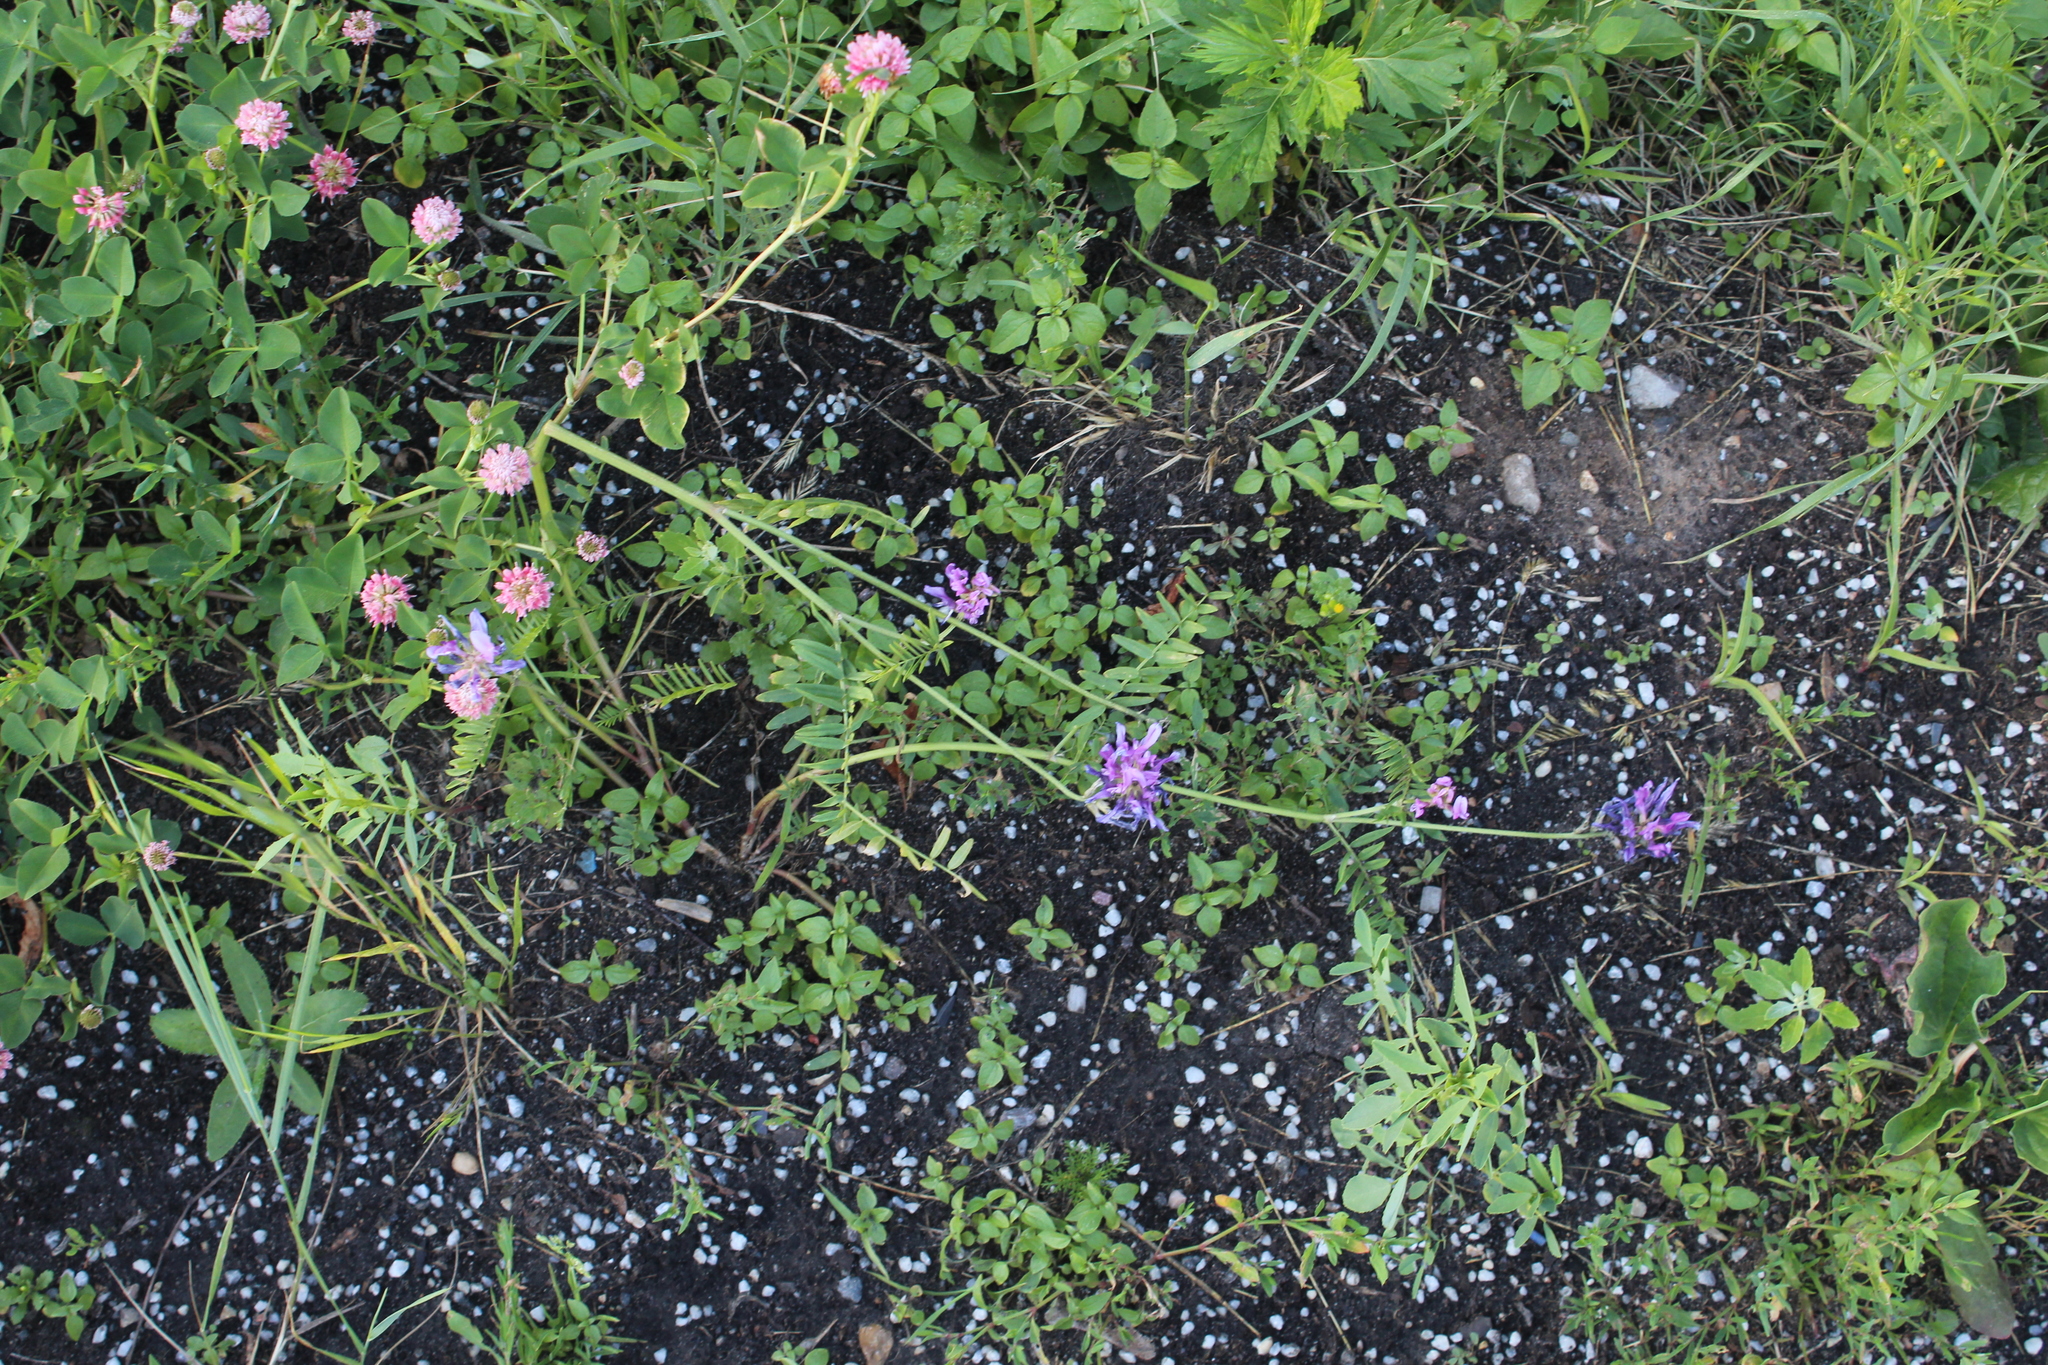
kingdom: Plantae
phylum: Tracheophyta
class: Magnoliopsida
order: Fabales
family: Fabaceae
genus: Astragalus
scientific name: Astragalus onobrychis
